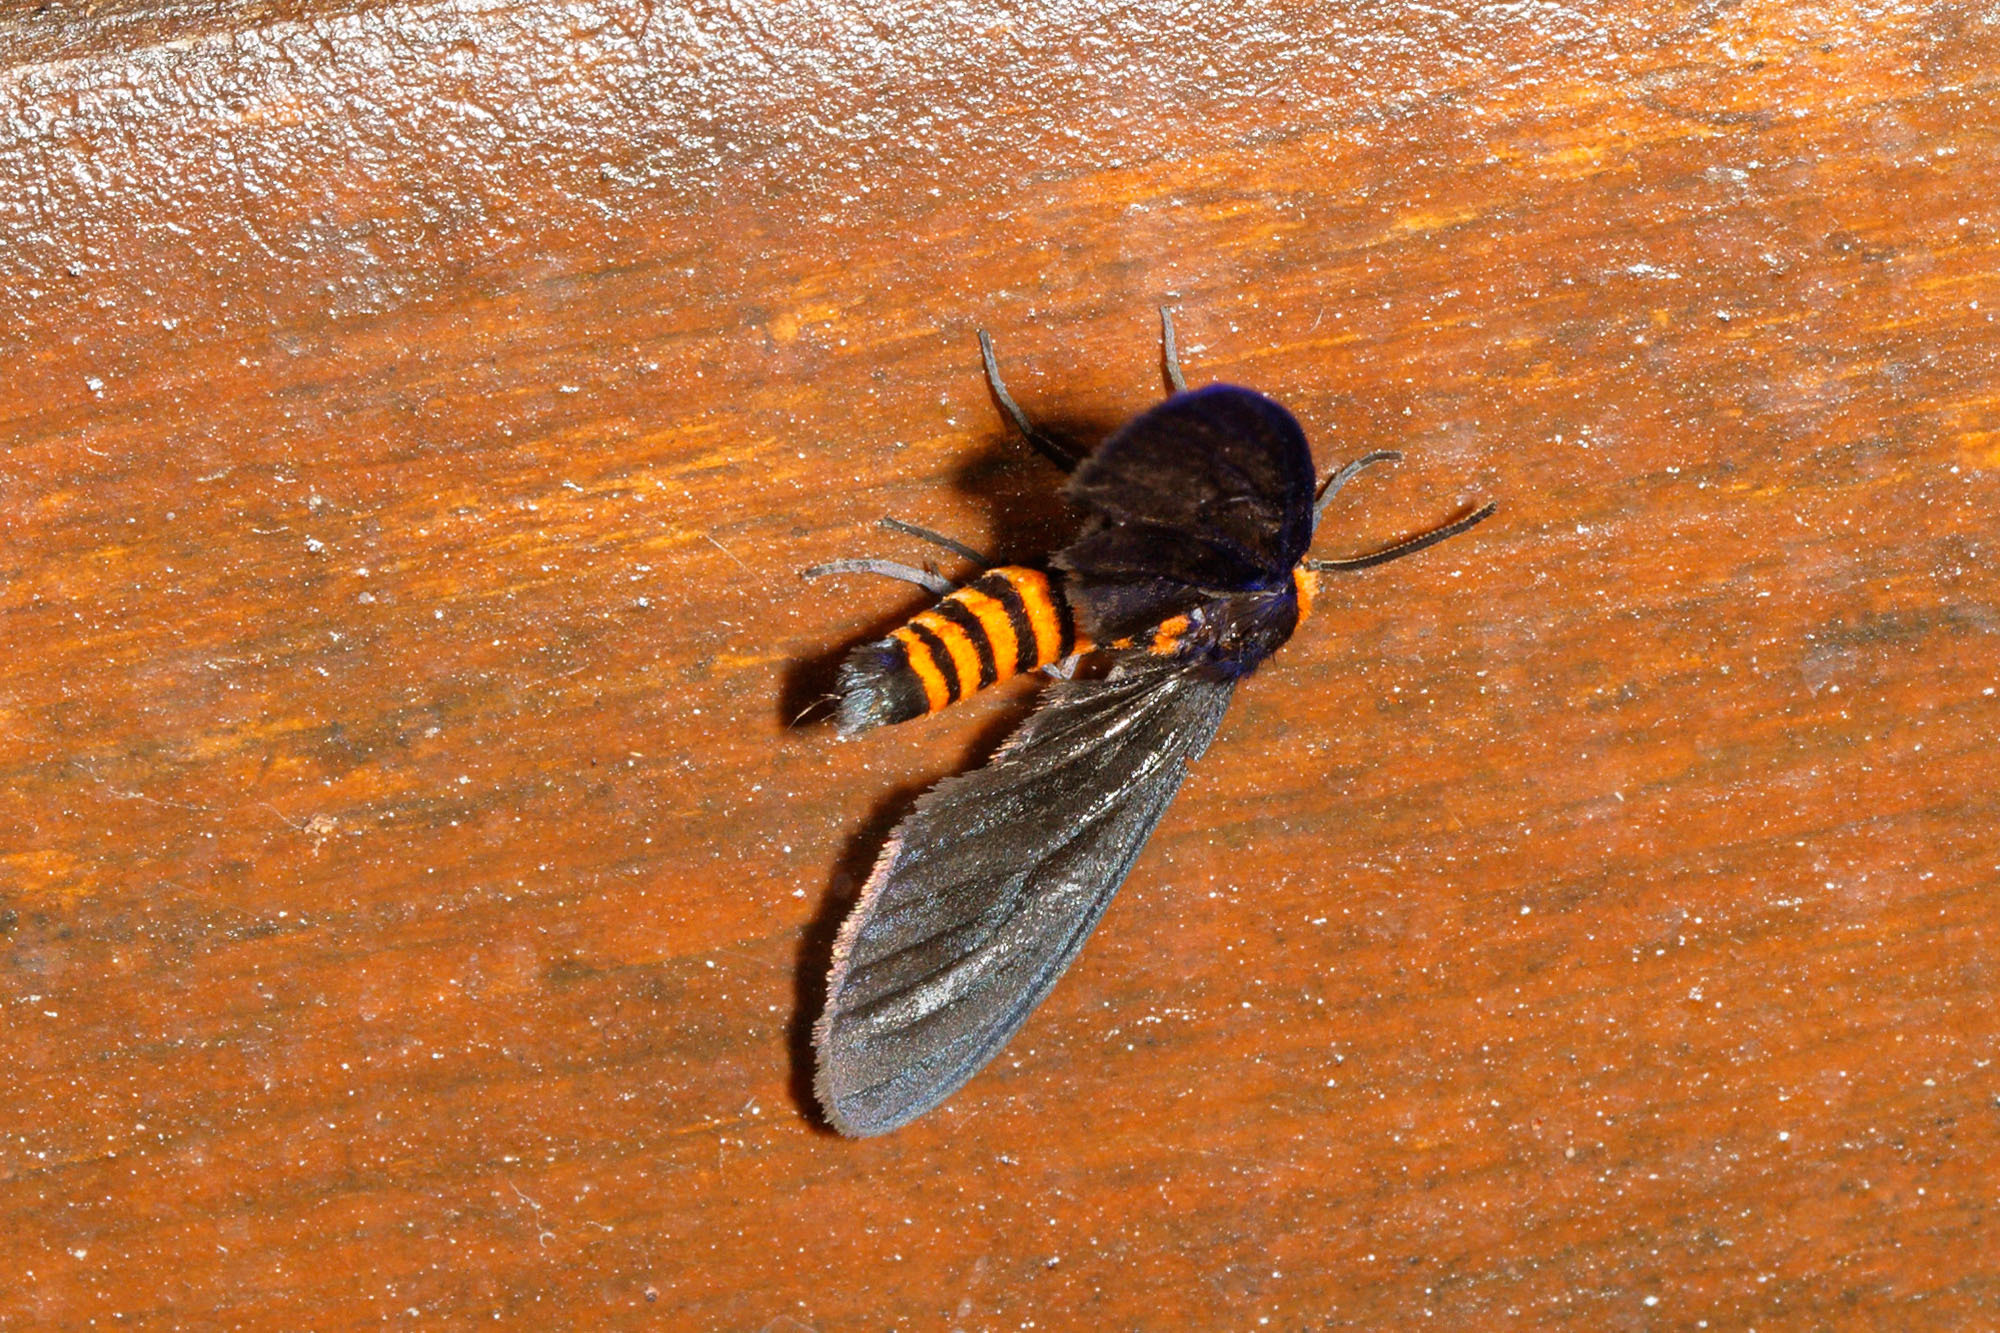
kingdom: Animalia
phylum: Arthropoda
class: Insecta
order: Lepidoptera
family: Erebidae
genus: Amata
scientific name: Amata bicolor
